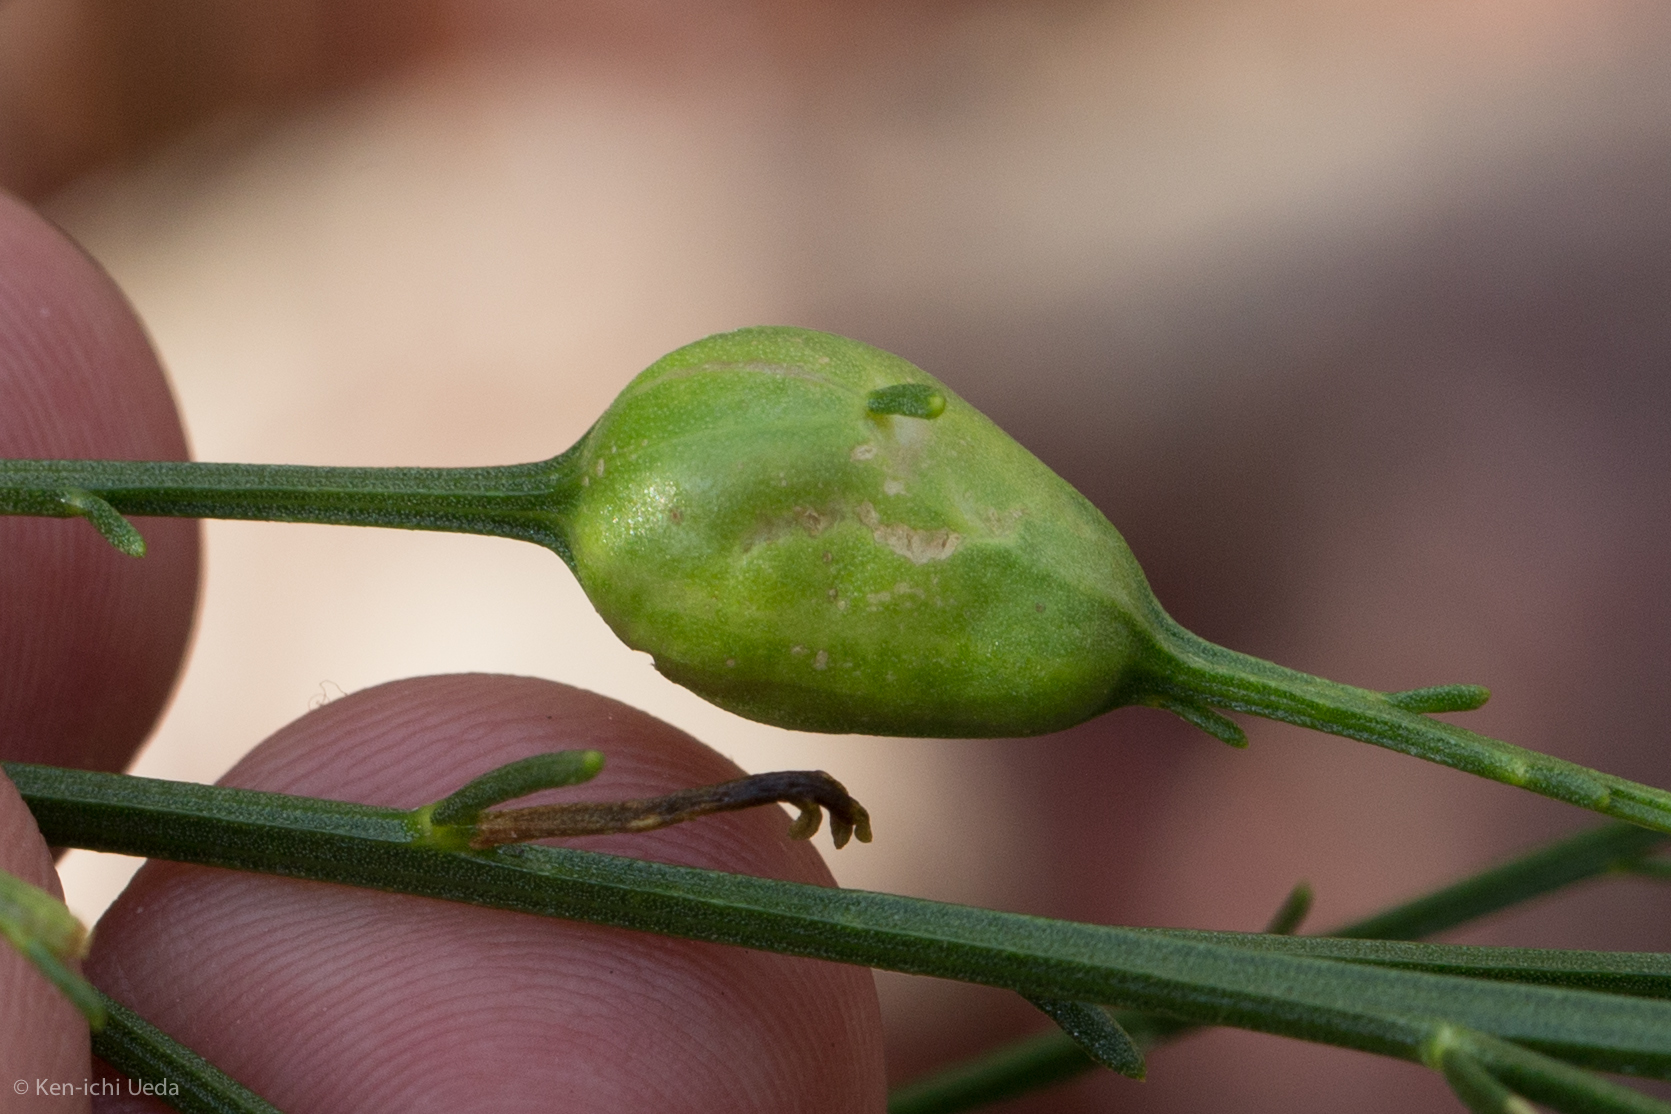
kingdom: Animalia
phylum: Arthropoda
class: Insecta
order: Diptera
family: Tephritidae
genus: Aciurina
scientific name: Aciurina thoracica
